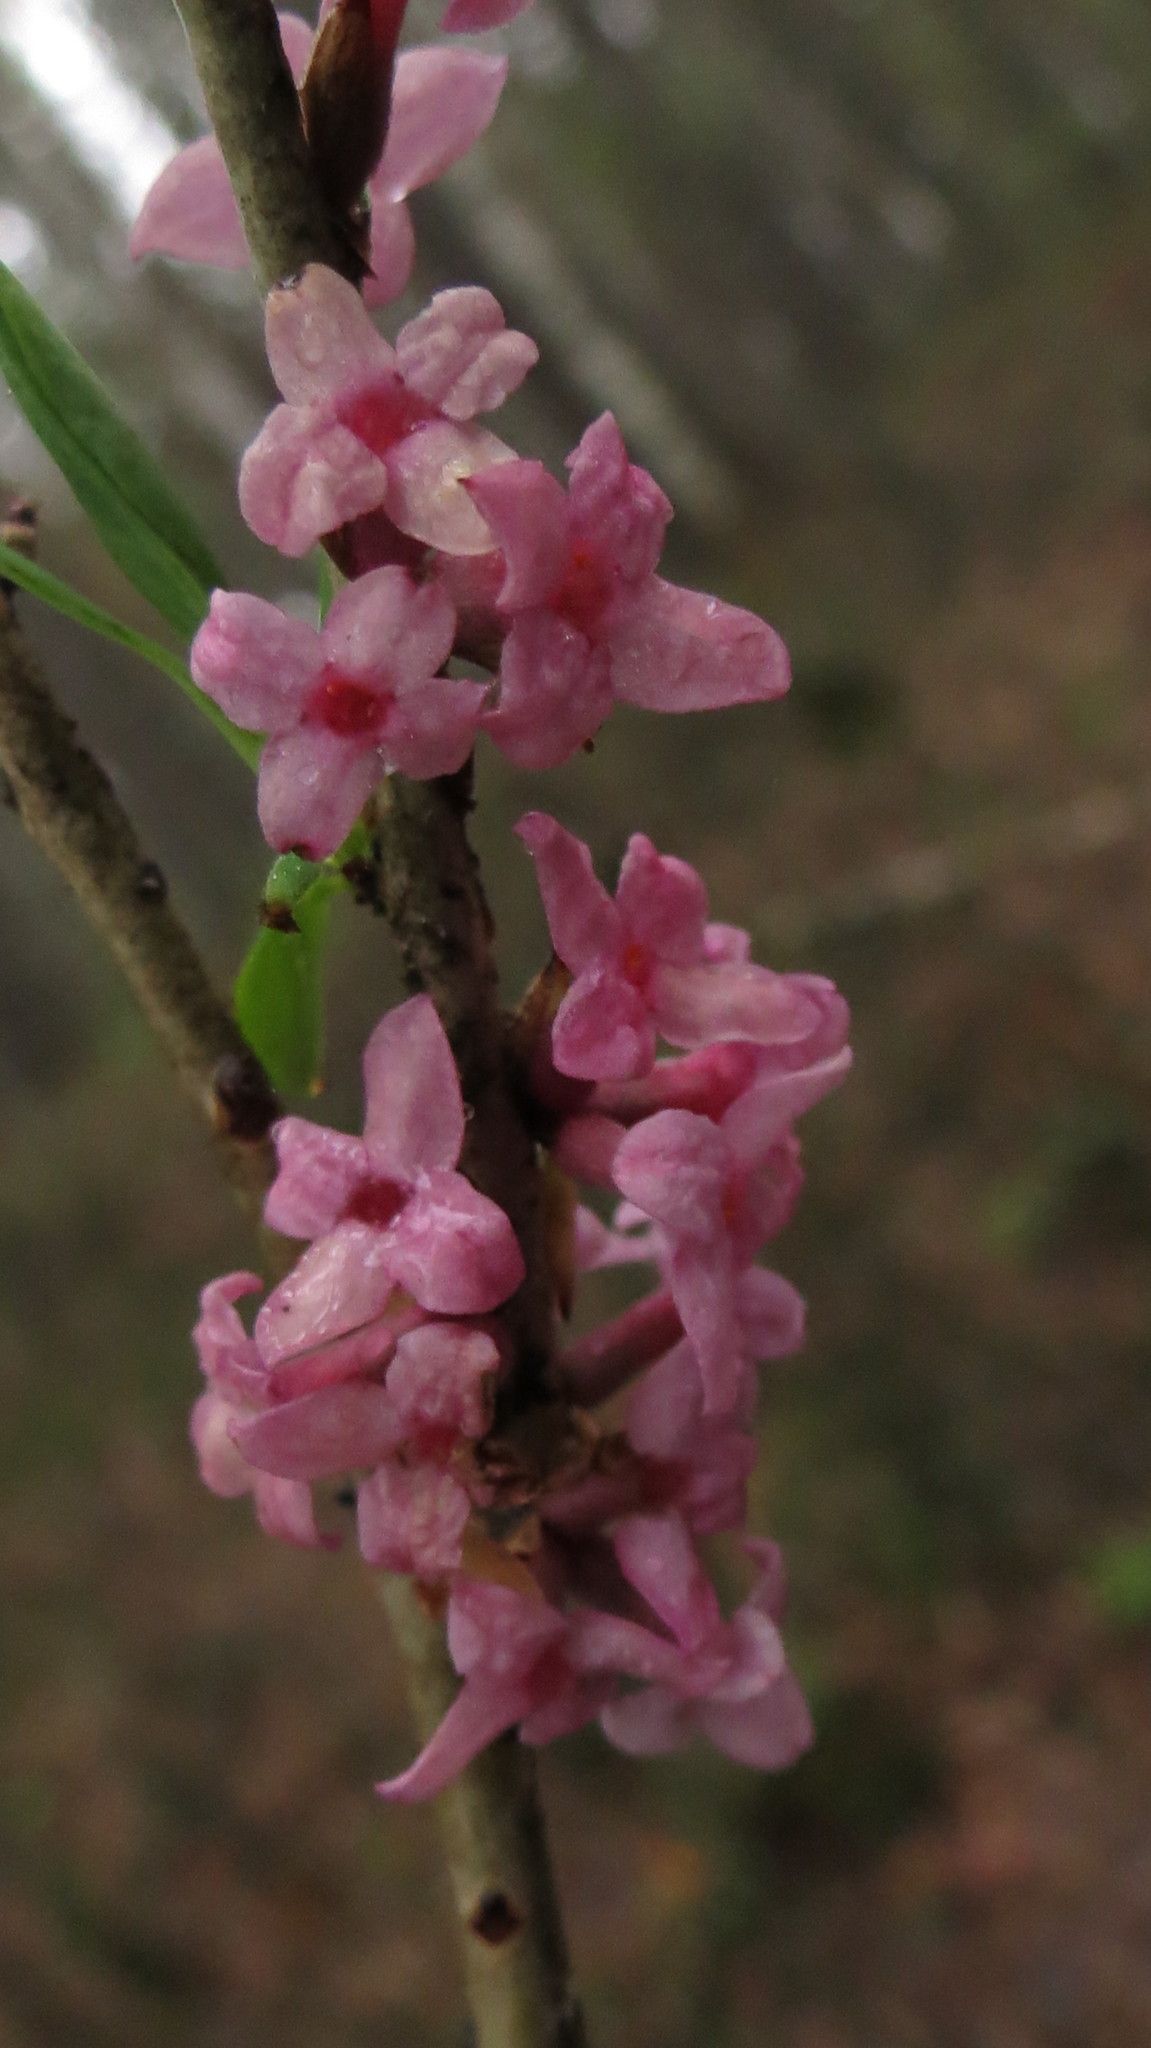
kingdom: Plantae
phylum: Tracheophyta
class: Magnoliopsida
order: Malvales
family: Thymelaeaceae
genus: Daphne
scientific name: Daphne mezereum
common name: Mezereon
